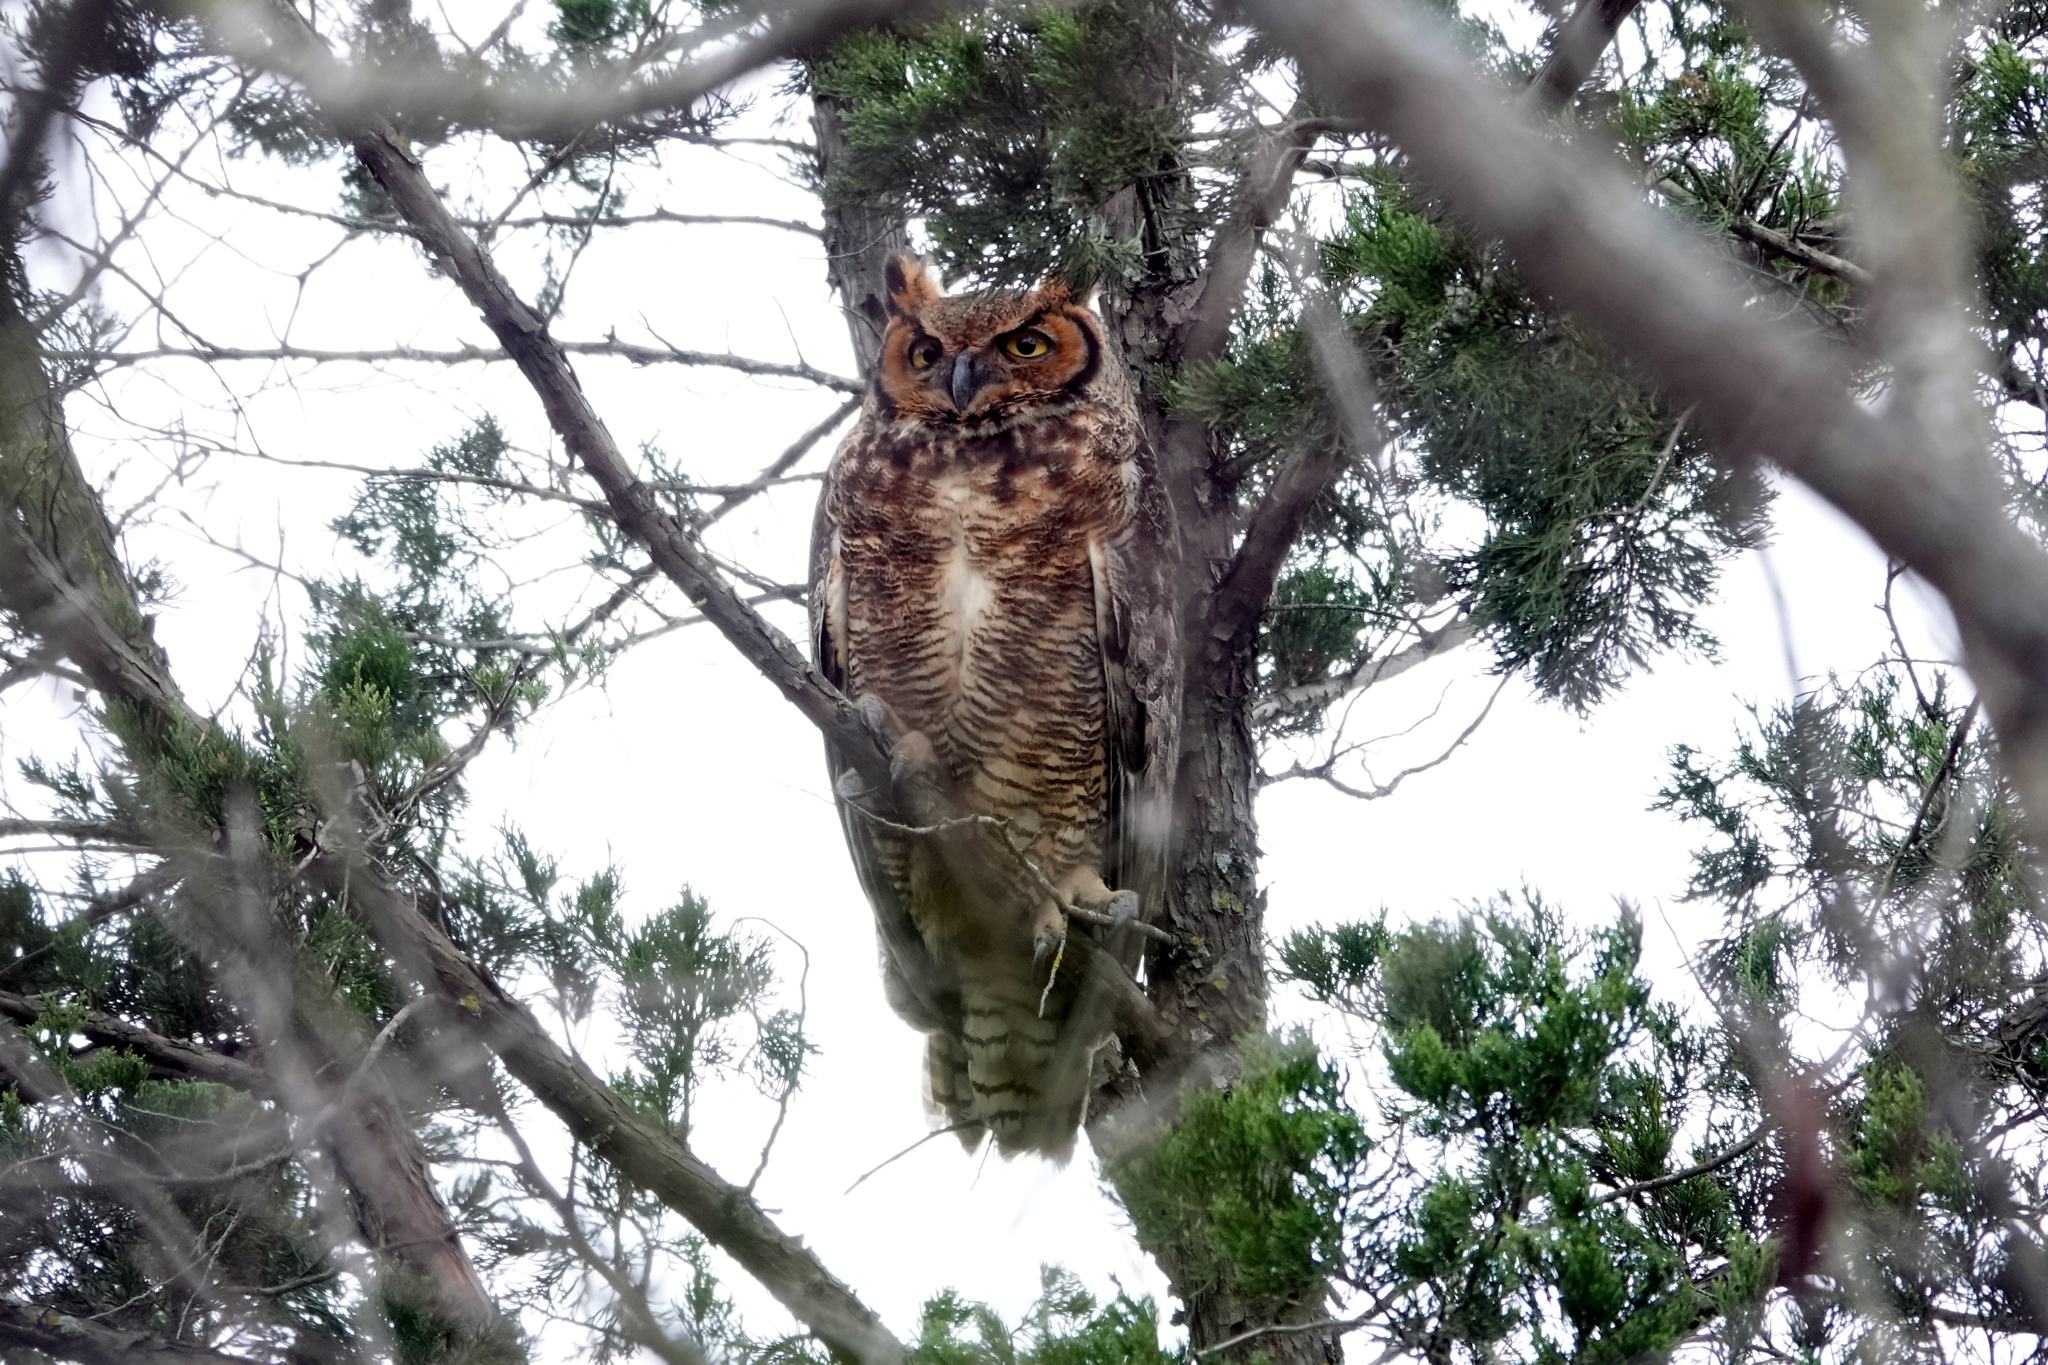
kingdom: Animalia
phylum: Chordata
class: Aves
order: Strigiformes
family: Strigidae
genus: Bubo
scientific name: Bubo virginianus
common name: Great horned owl
